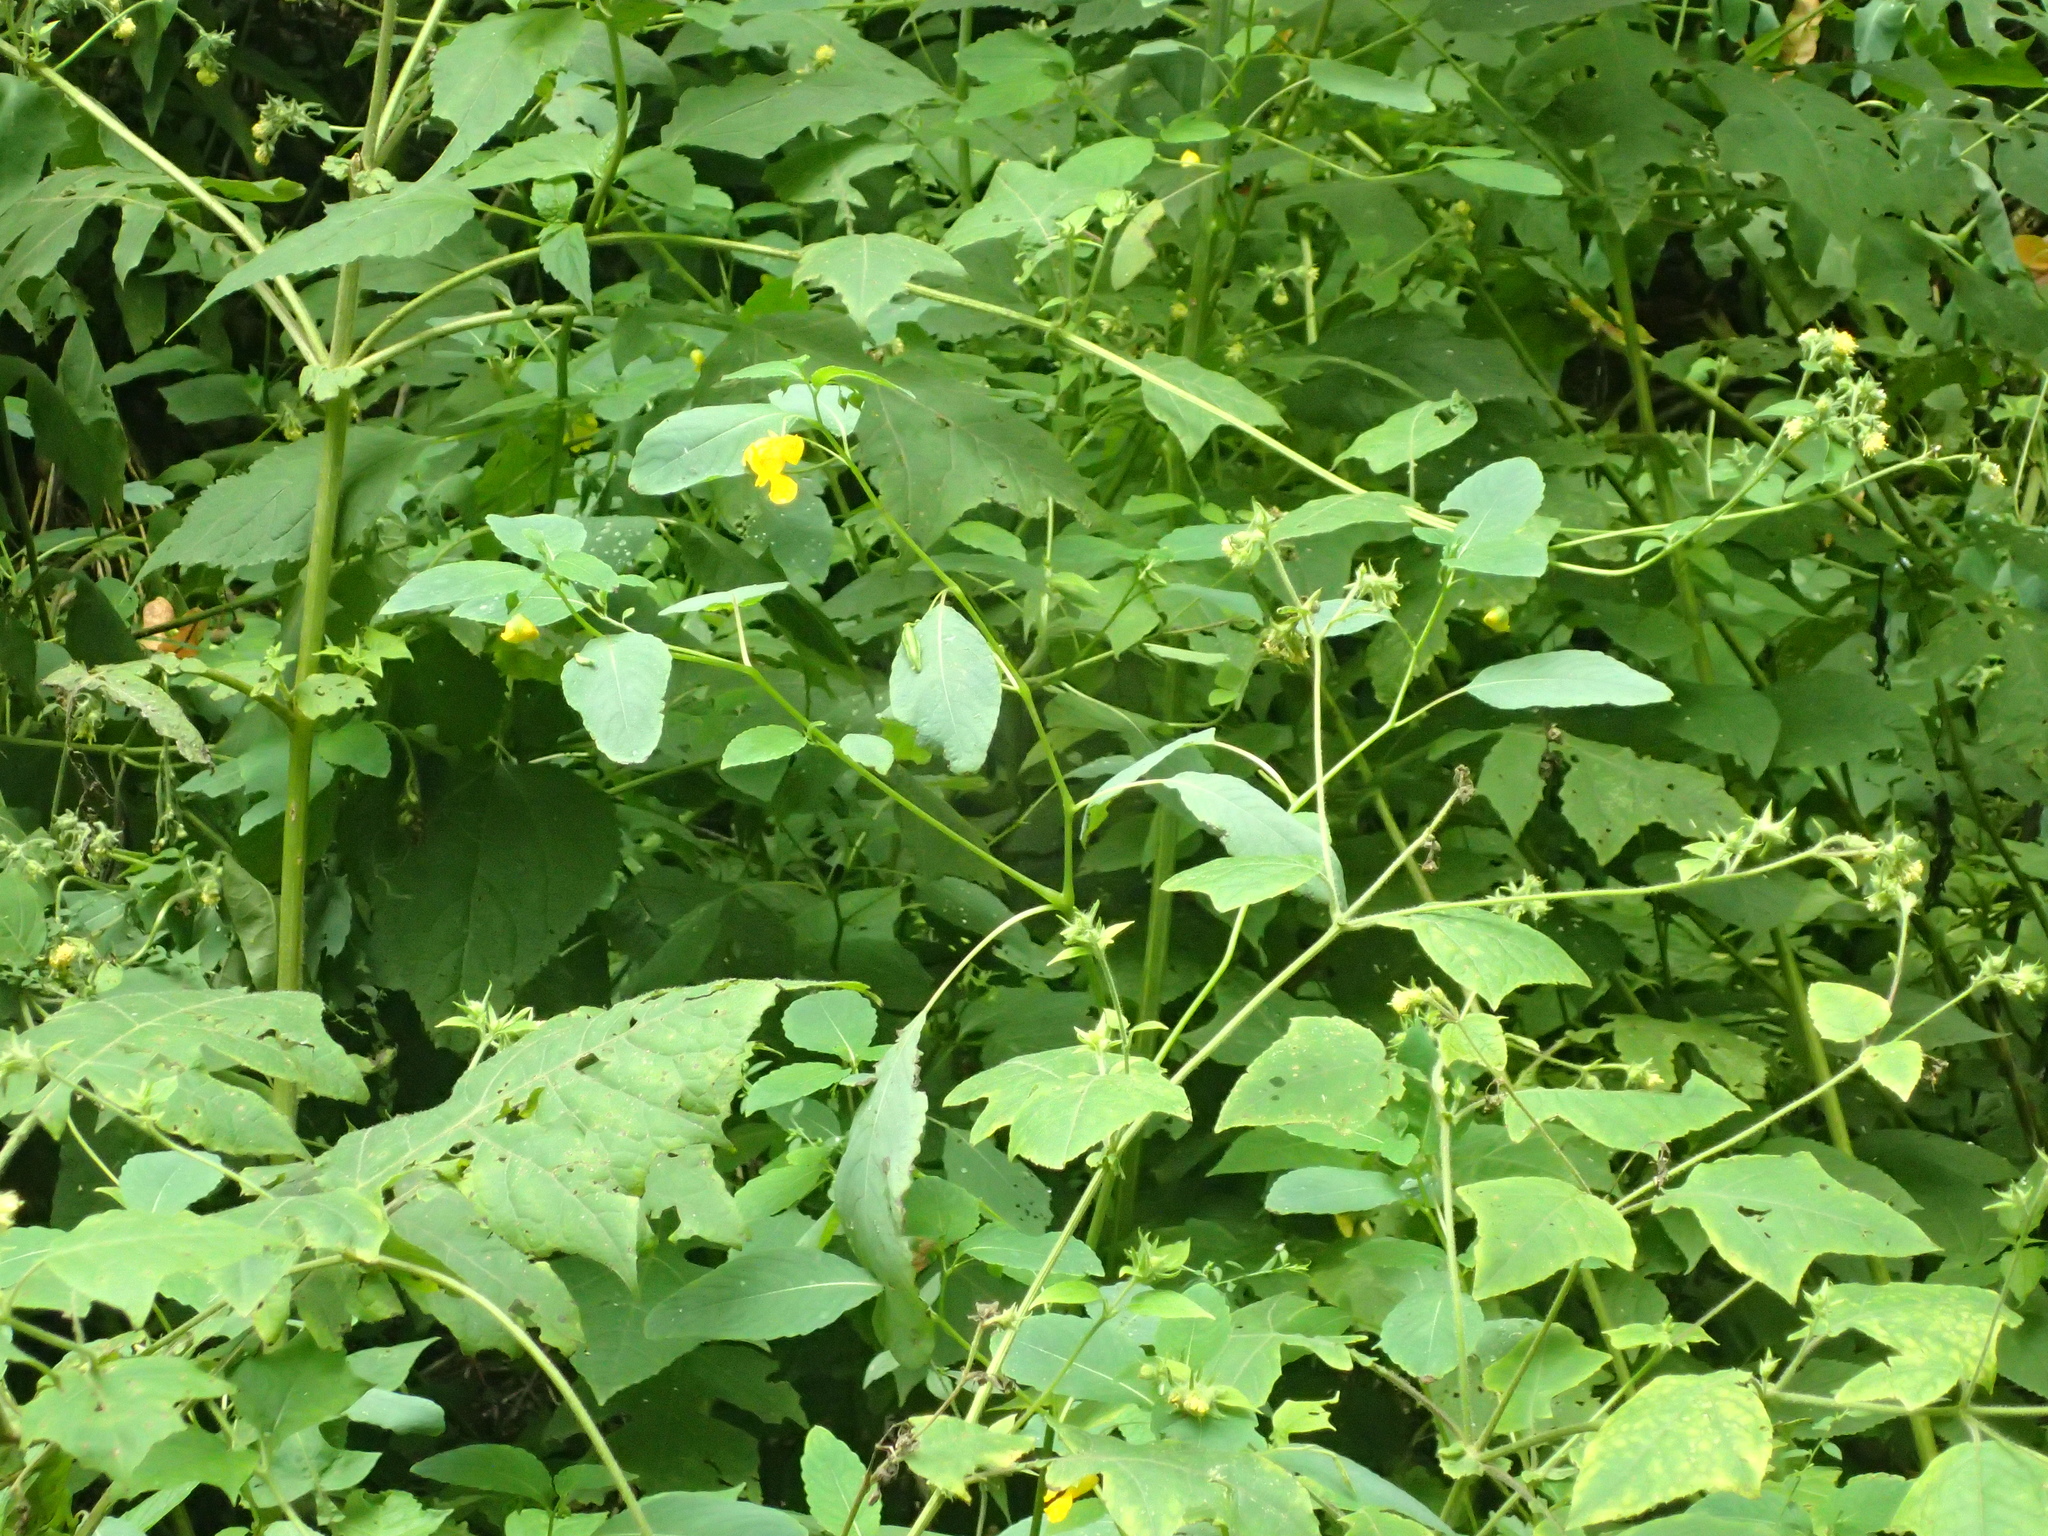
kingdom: Plantae
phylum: Tracheophyta
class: Magnoliopsida
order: Ericales
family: Balsaminaceae
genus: Impatiens
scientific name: Impatiens pallida
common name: Pale snapweed
